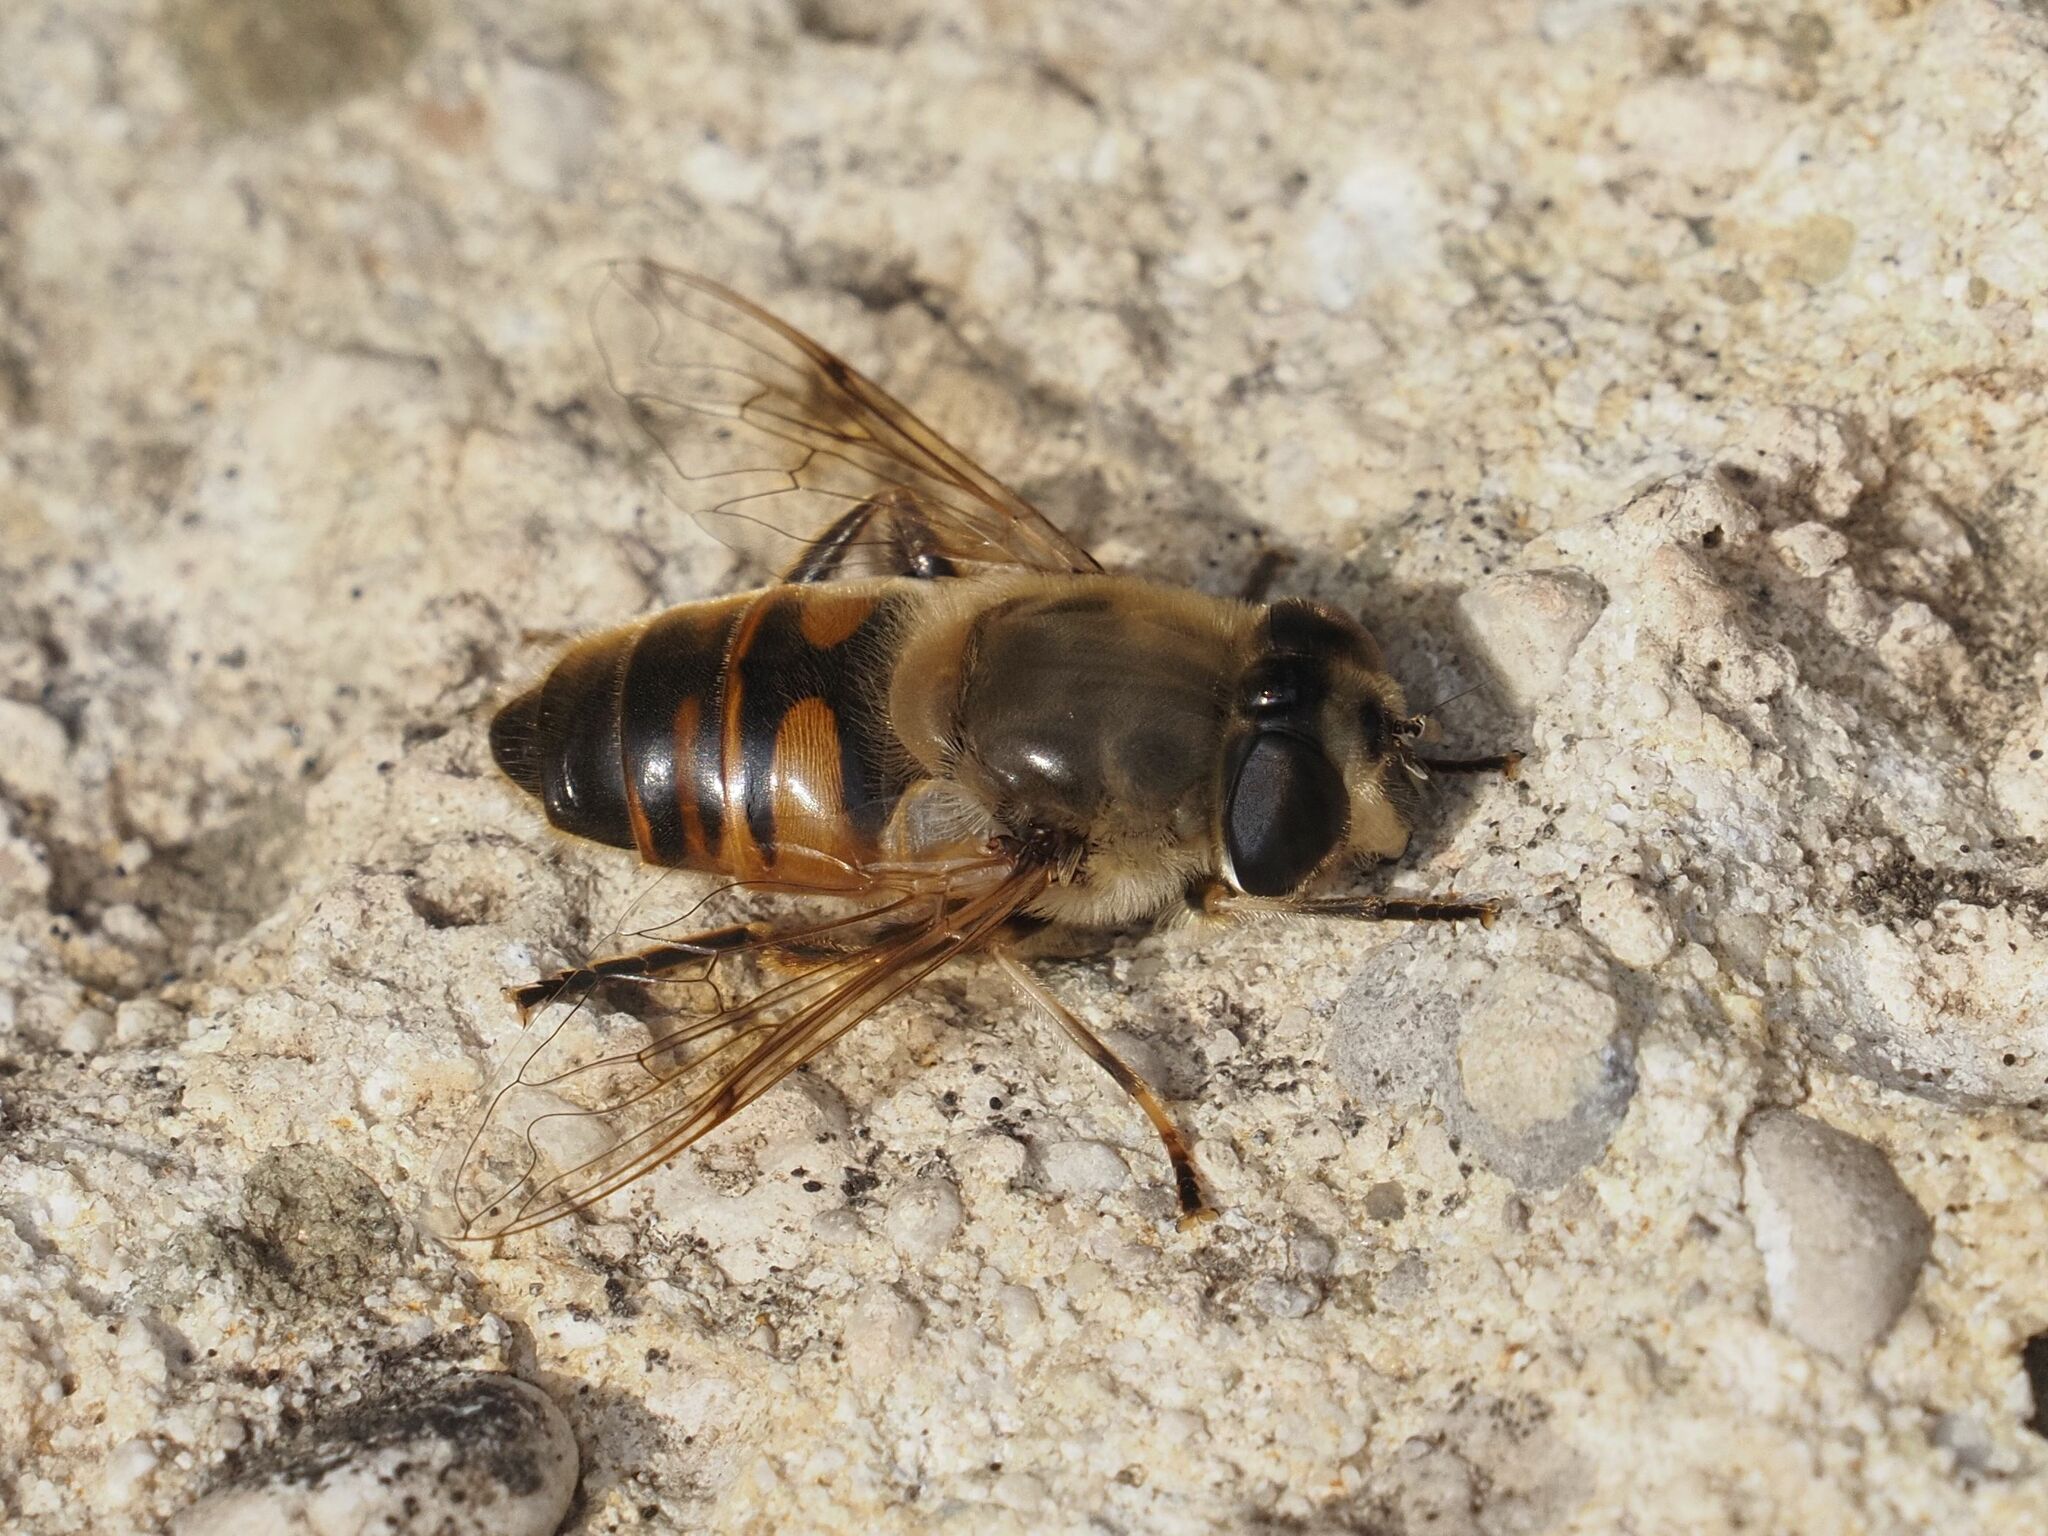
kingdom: Animalia
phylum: Arthropoda
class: Insecta
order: Diptera
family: Syrphidae
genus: Eristalis
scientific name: Eristalis tenax
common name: Drone fly
